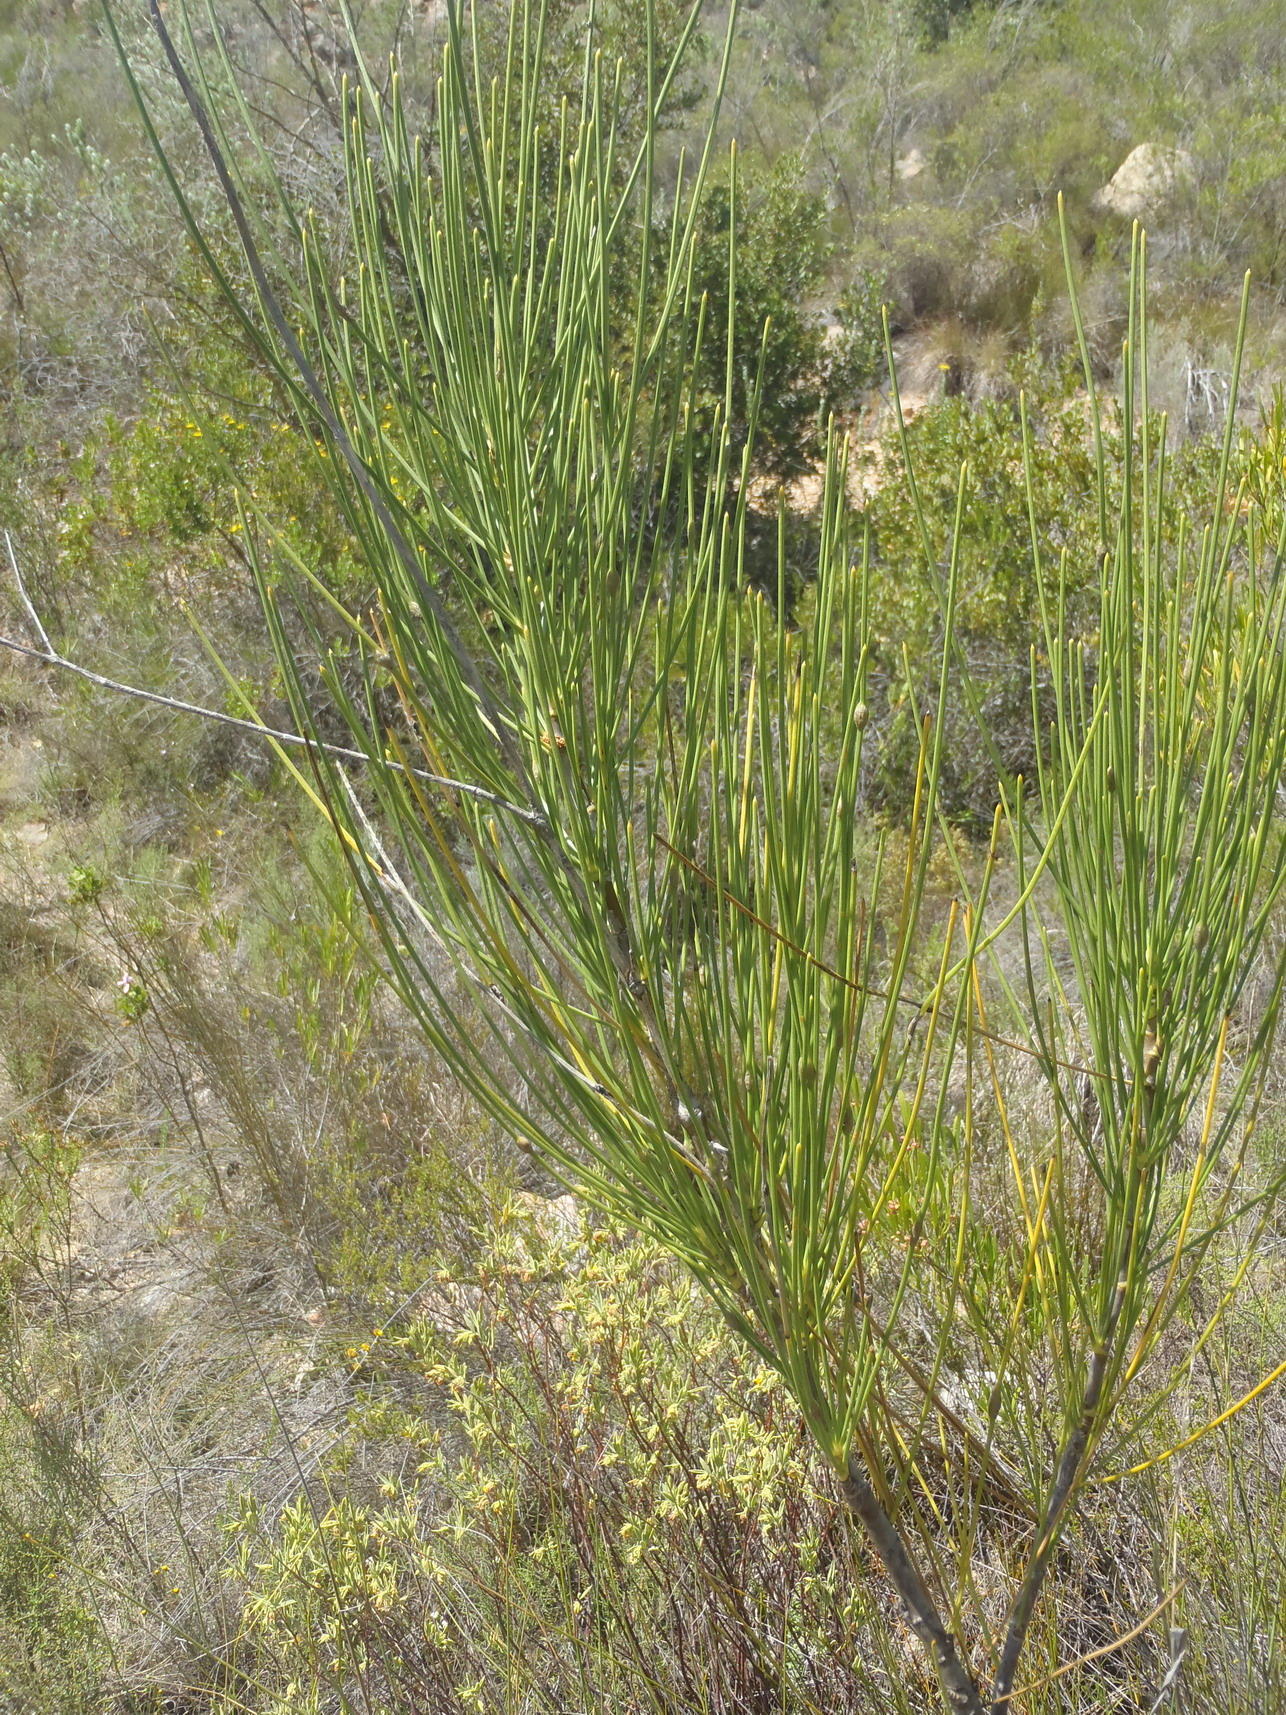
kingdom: Plantae
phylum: Tracheophyta
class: Magnoliopsida
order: Apiales
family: Apiaceae
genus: Anginon
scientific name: Anginon difforme
